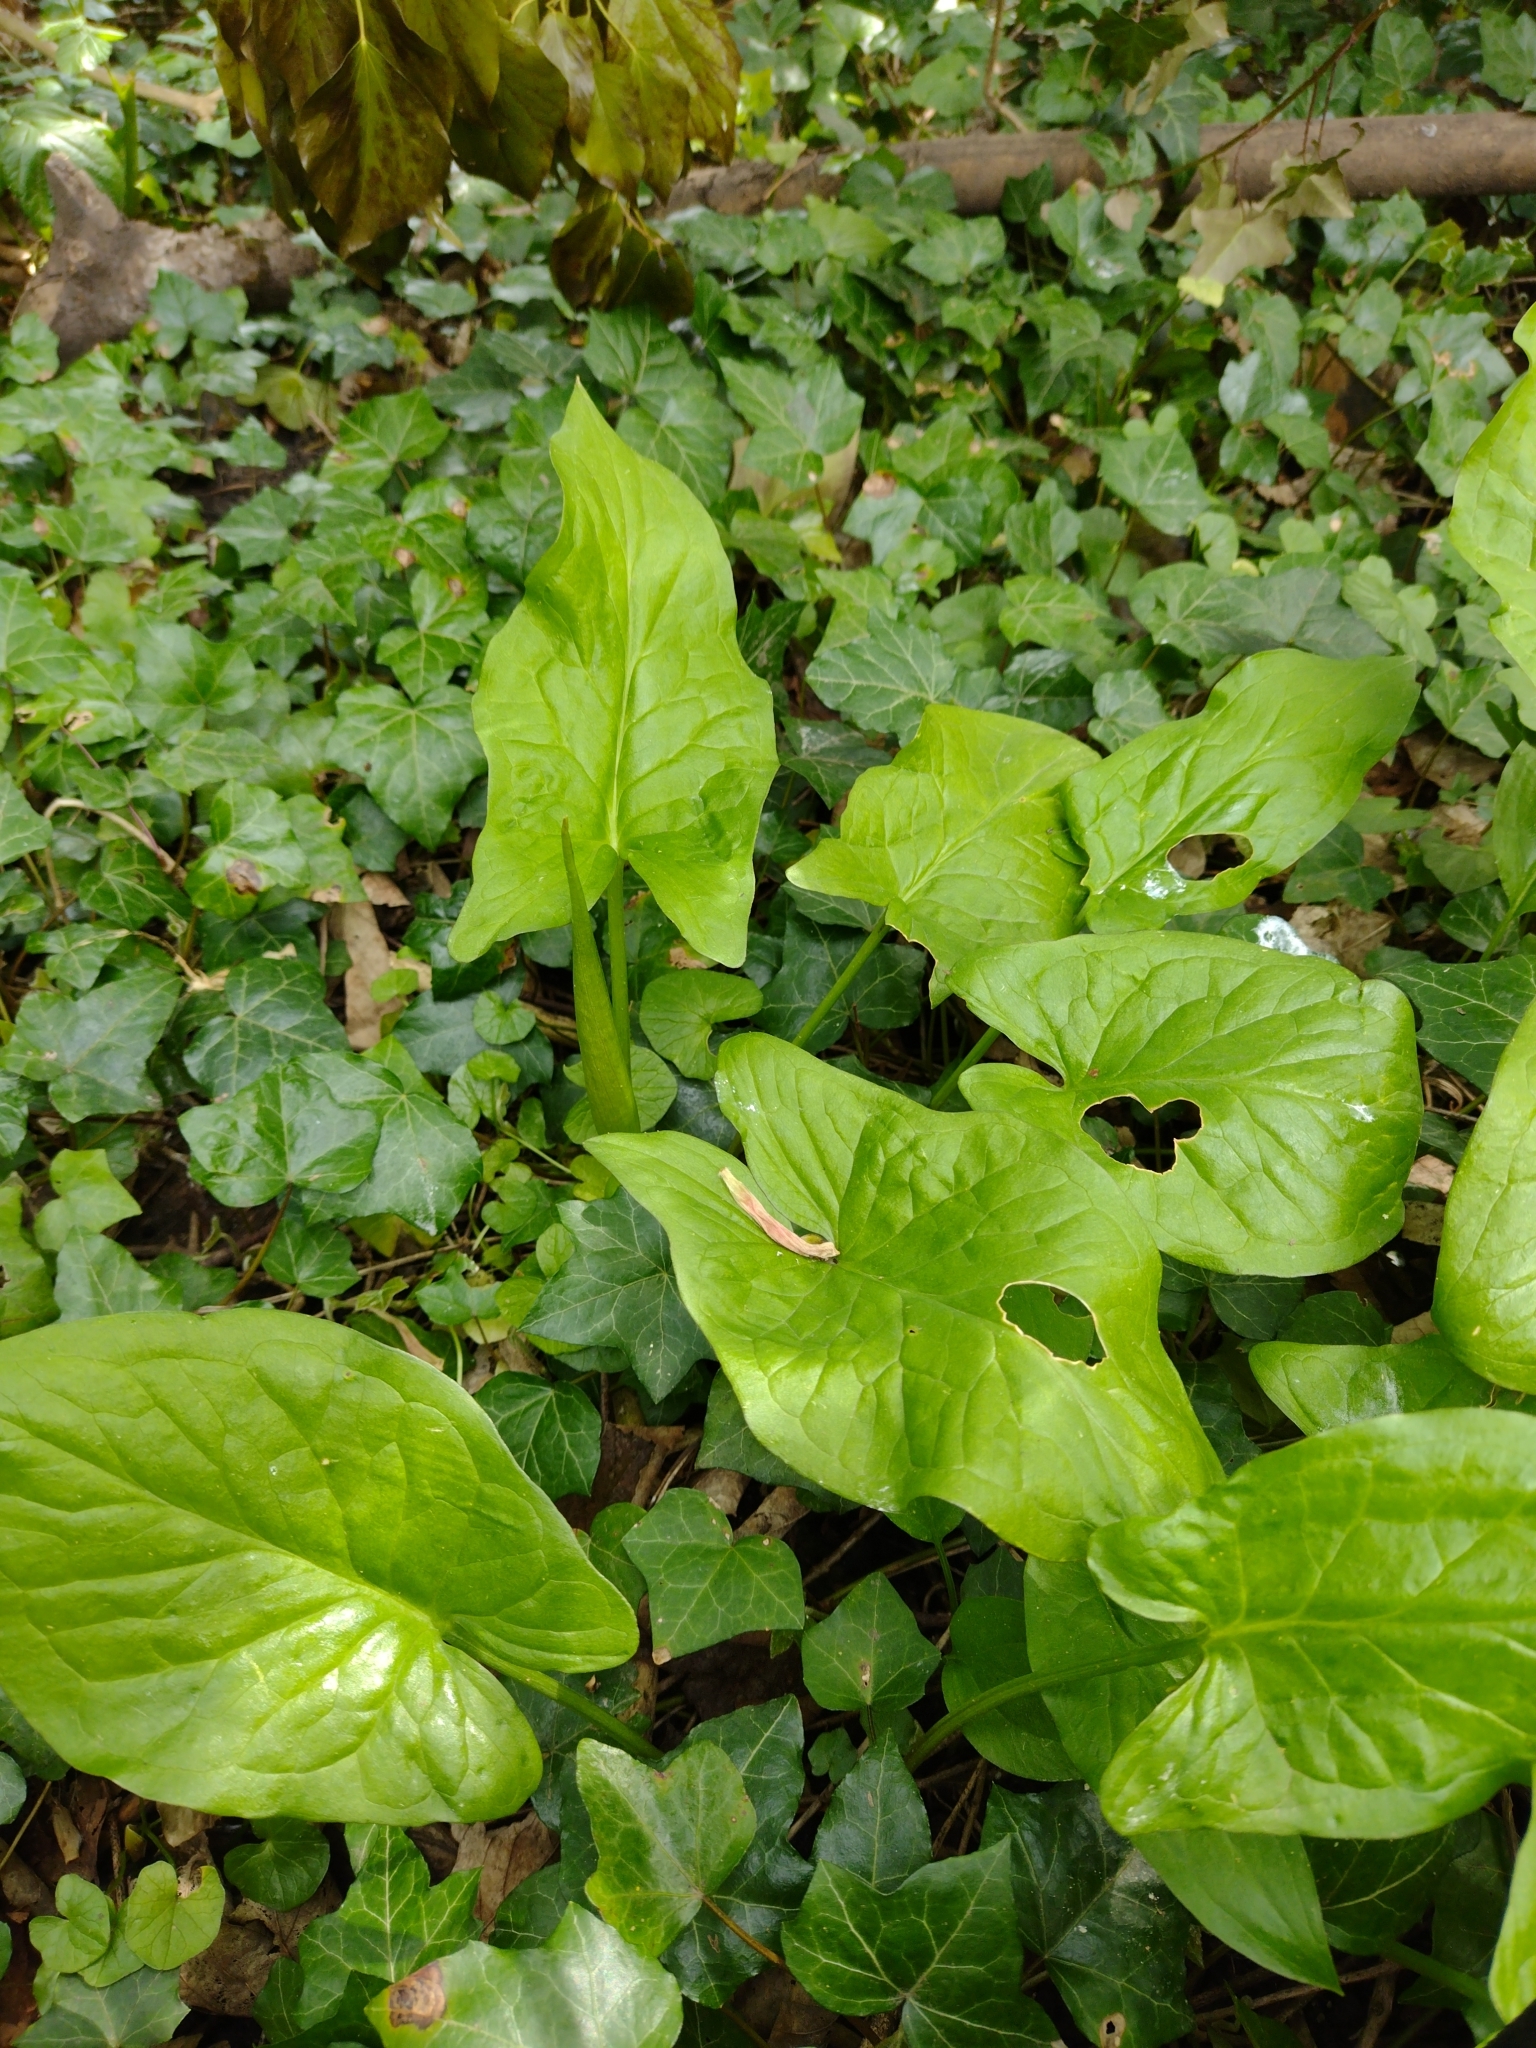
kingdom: Plantae
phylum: Tracheophyta
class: Liliopsida
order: Alismatales
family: Araceae
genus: Arum
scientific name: Arum maculatum
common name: Lords-and-ladies
